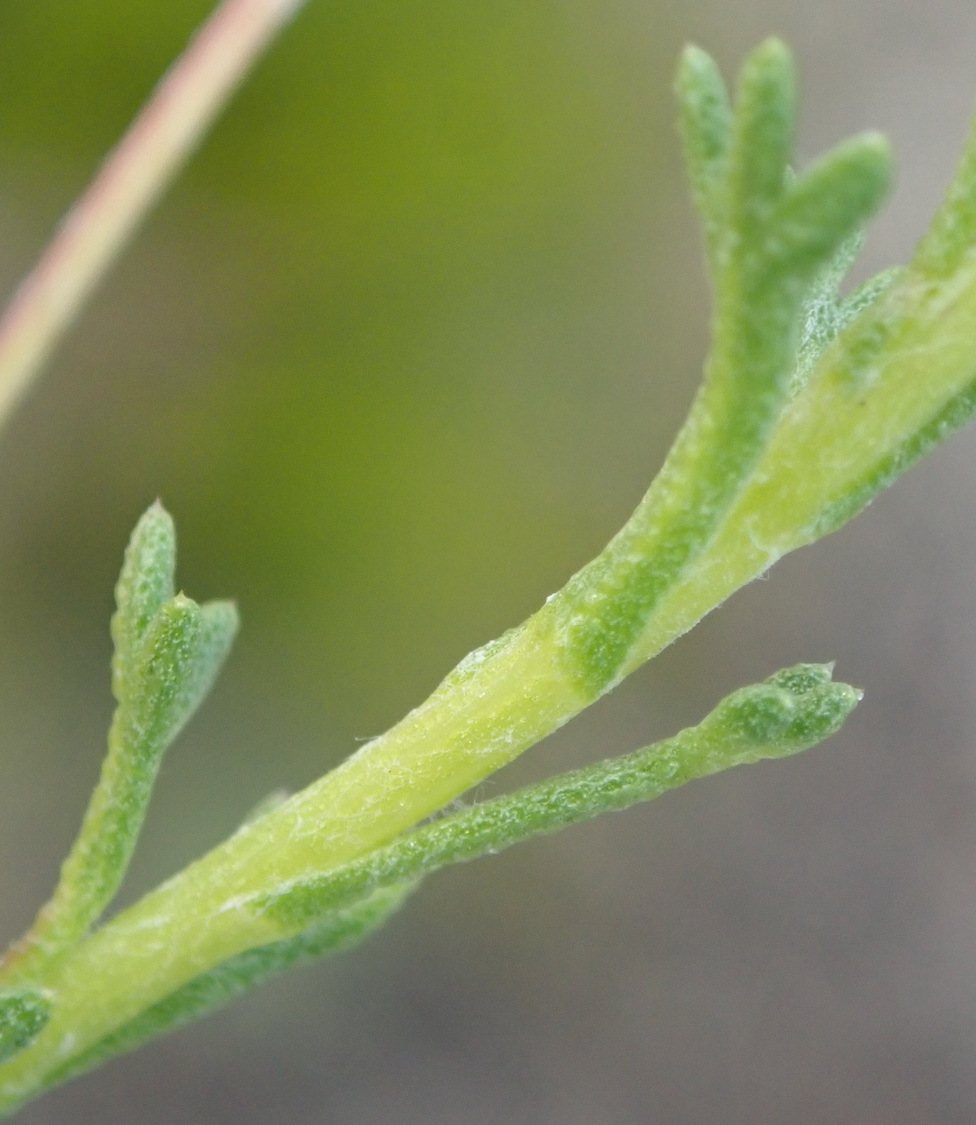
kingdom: Plantae
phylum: Tracheophyta
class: Magnoliopsida
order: Asterales
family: Asteraceae
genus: Ursinia
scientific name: Ursinia trifida
